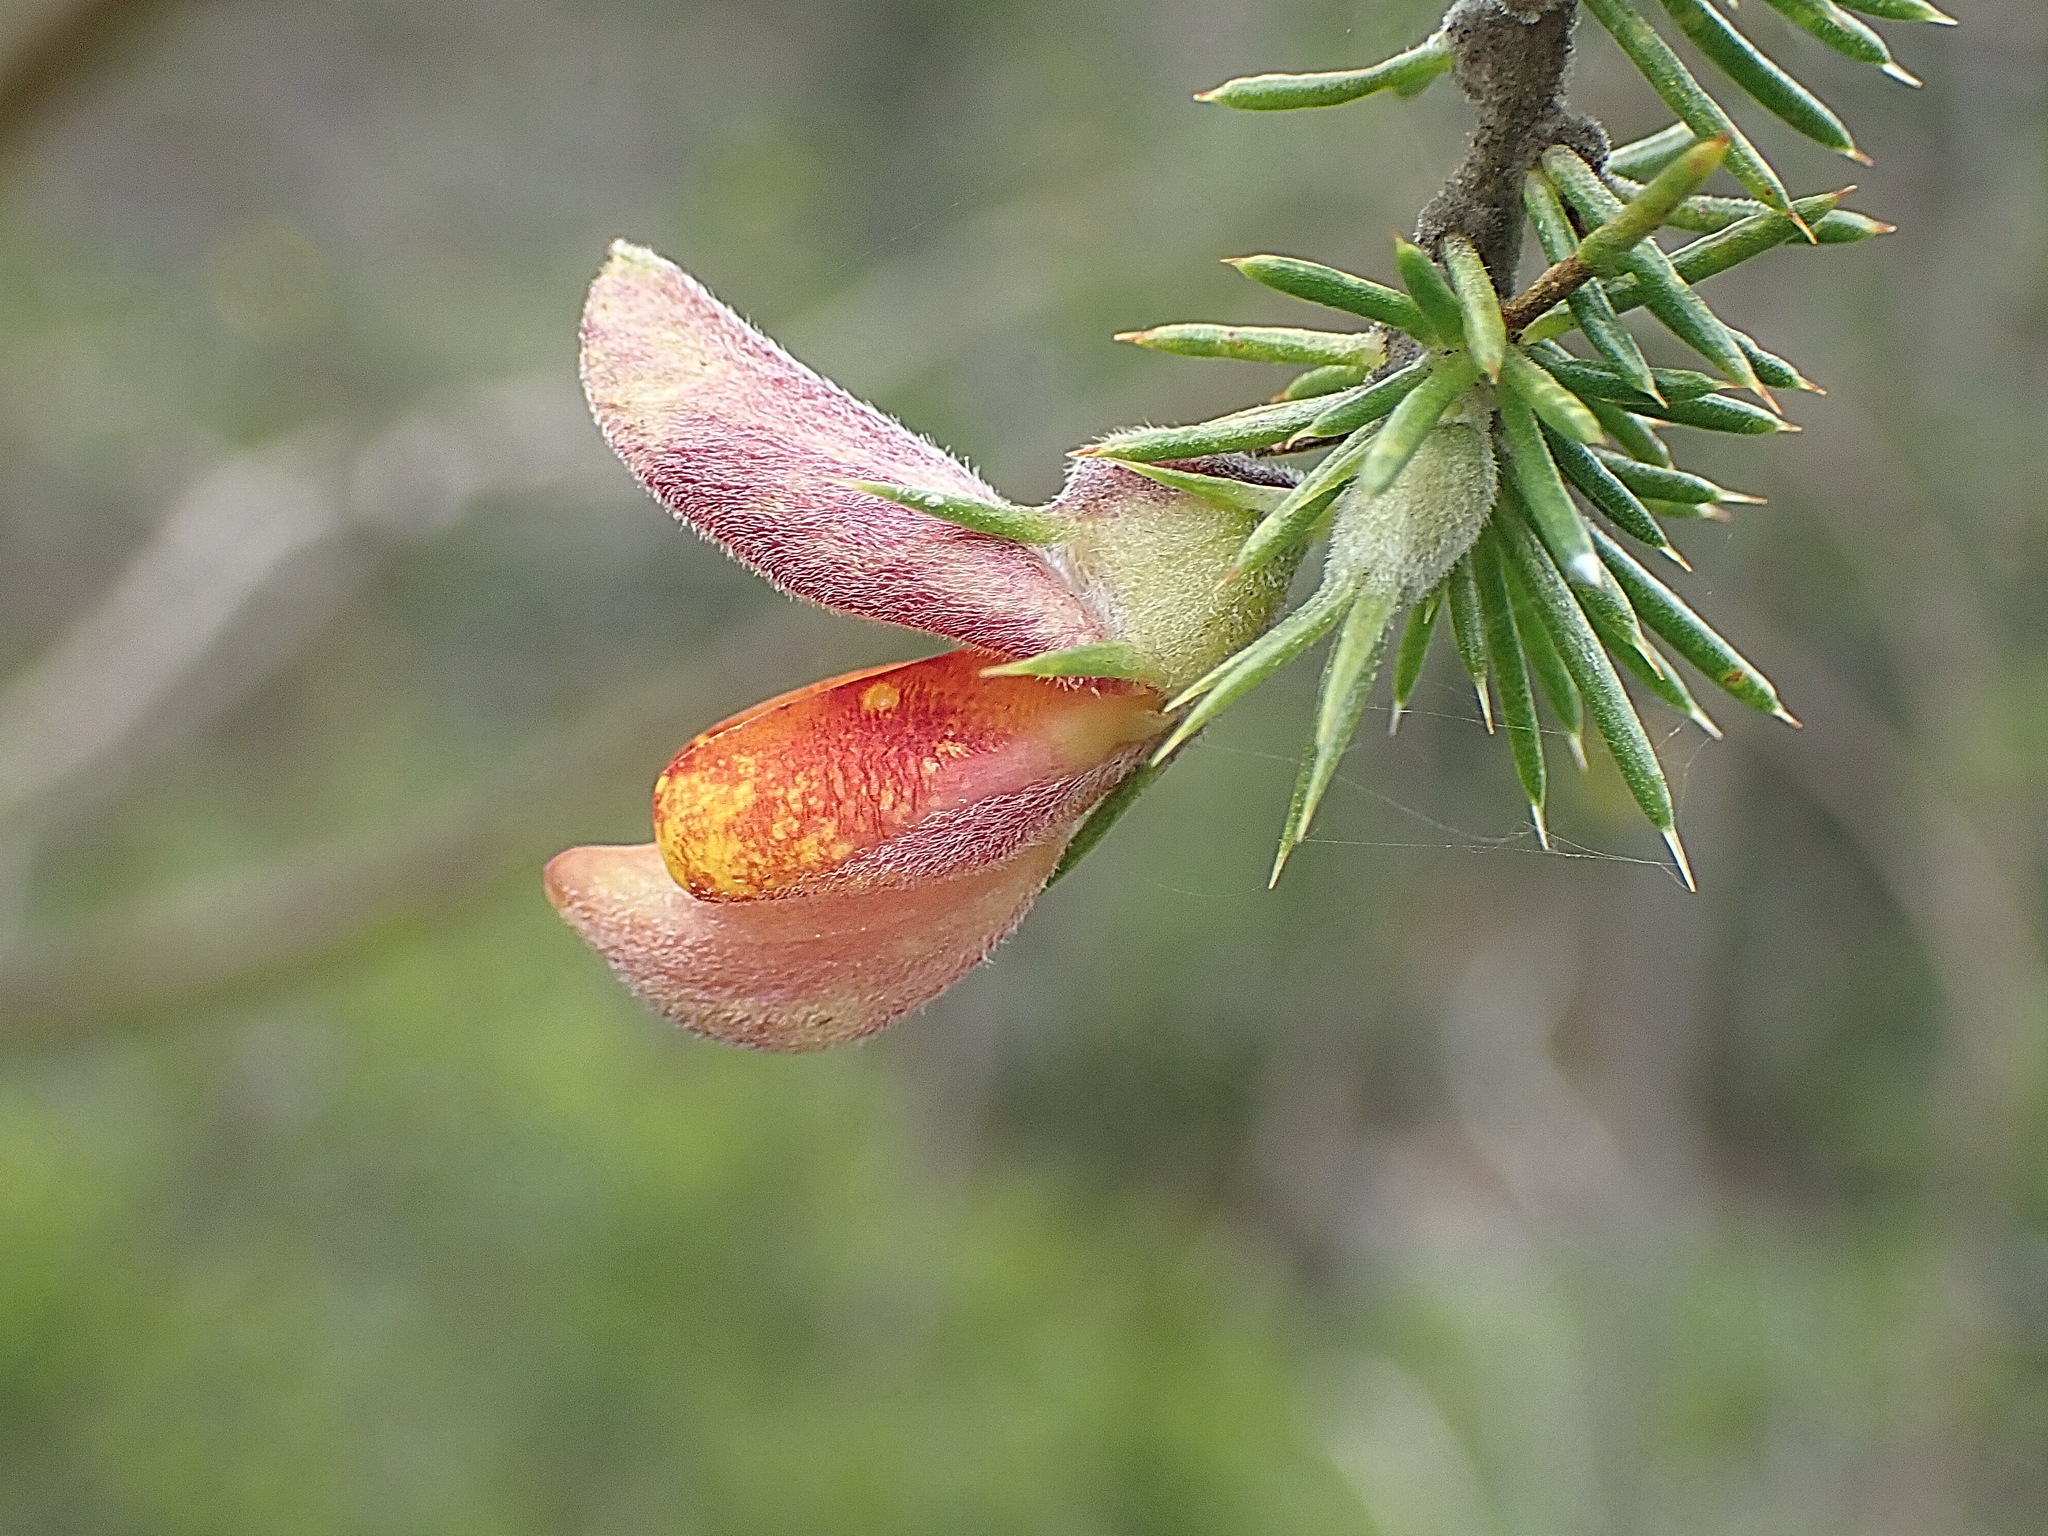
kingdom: Plantae
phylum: Tracheophyta
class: Magnoliopsida
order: Fabales
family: Fabaceae
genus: Aspalathus
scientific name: Aspalathus teres
